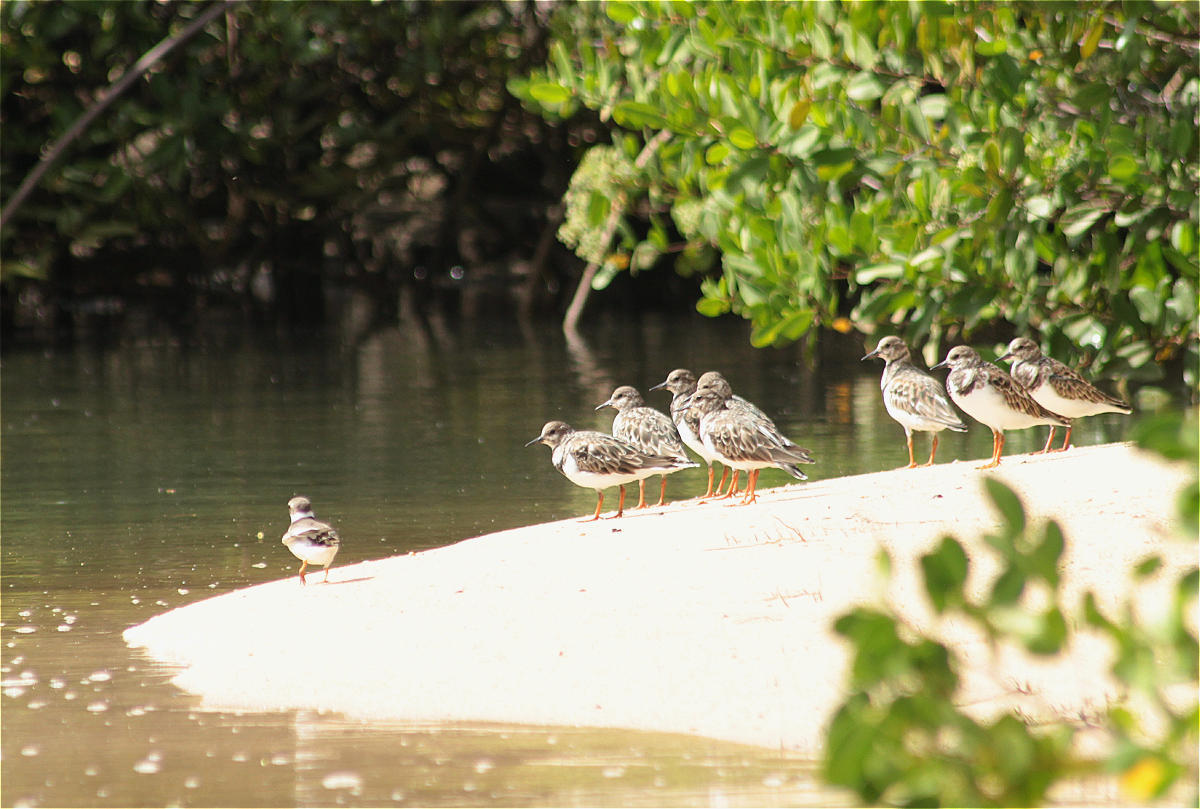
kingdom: Animalia
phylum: Chordata
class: Aves
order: Charadriiformes
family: Scolopacidae
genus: Arenaria
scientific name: Arenaria interpres
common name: Ruddy turnstone
